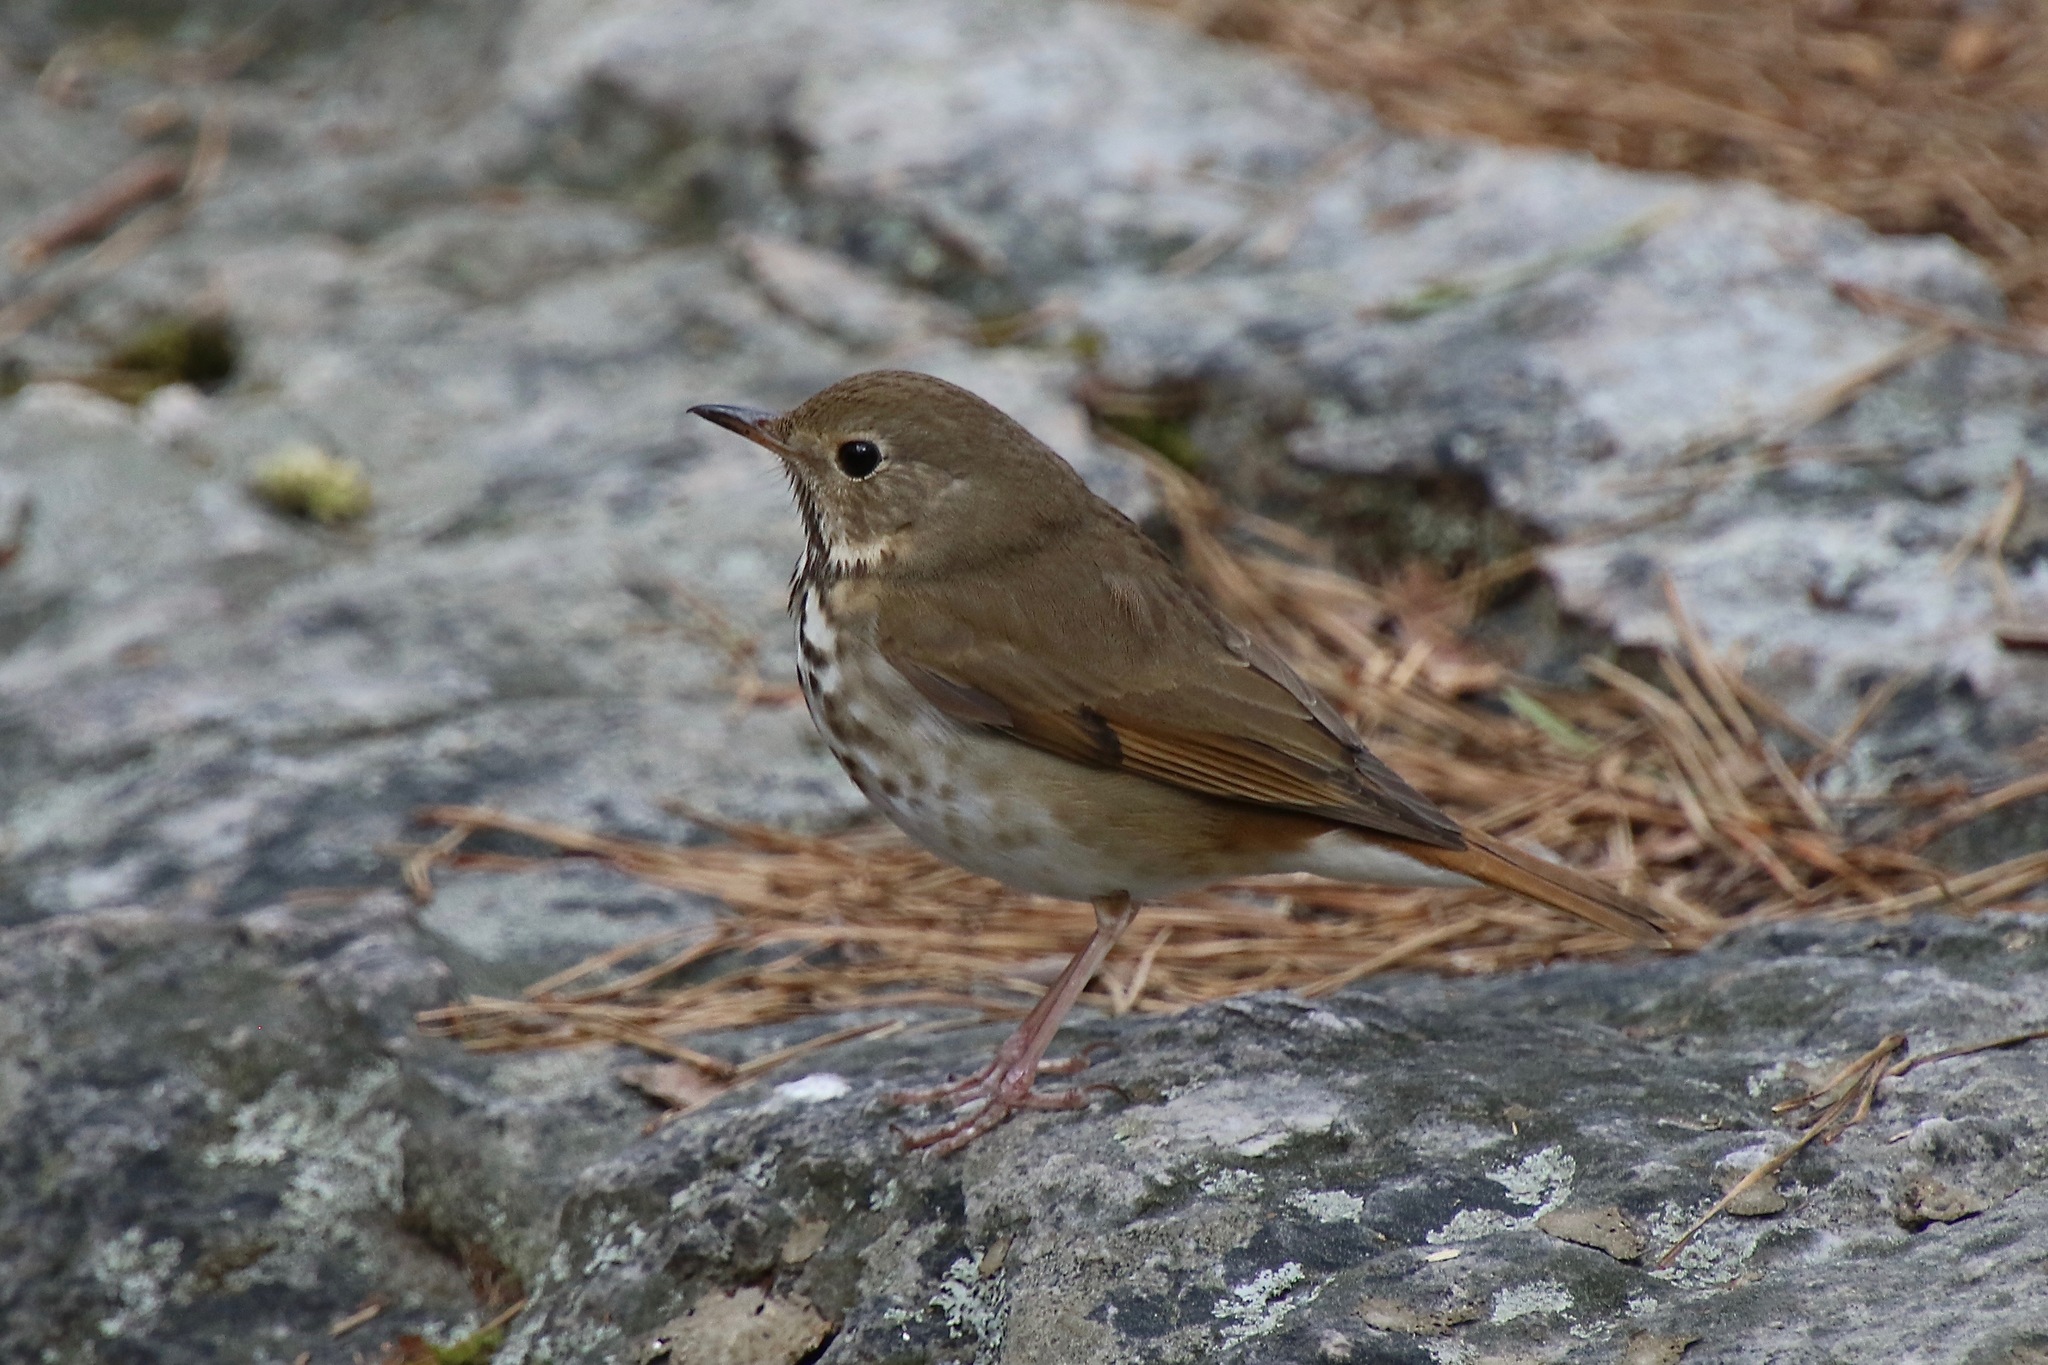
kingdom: Animalia
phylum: Chordata
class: Aves
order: Passeriformes
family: Turdidae
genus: Catharus
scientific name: Catharus guttatus
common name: Hermit thrush
